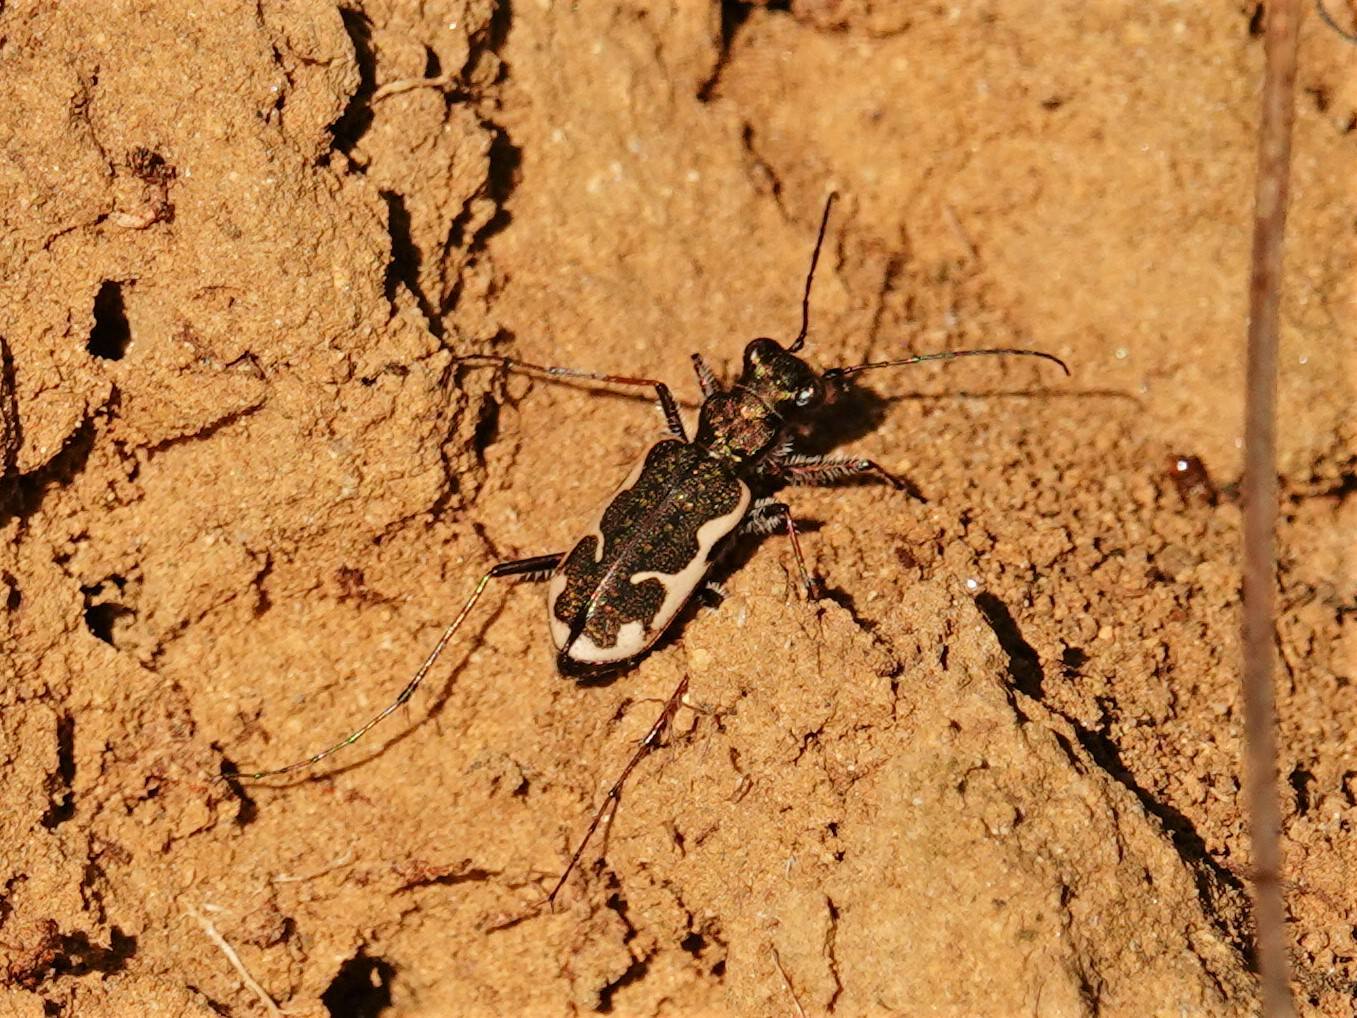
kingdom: Animalia
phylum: Arthropoda
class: Insecta
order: Coleoptera
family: Carabidae
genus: Neocicindela
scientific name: Neocicindela tuberculata
